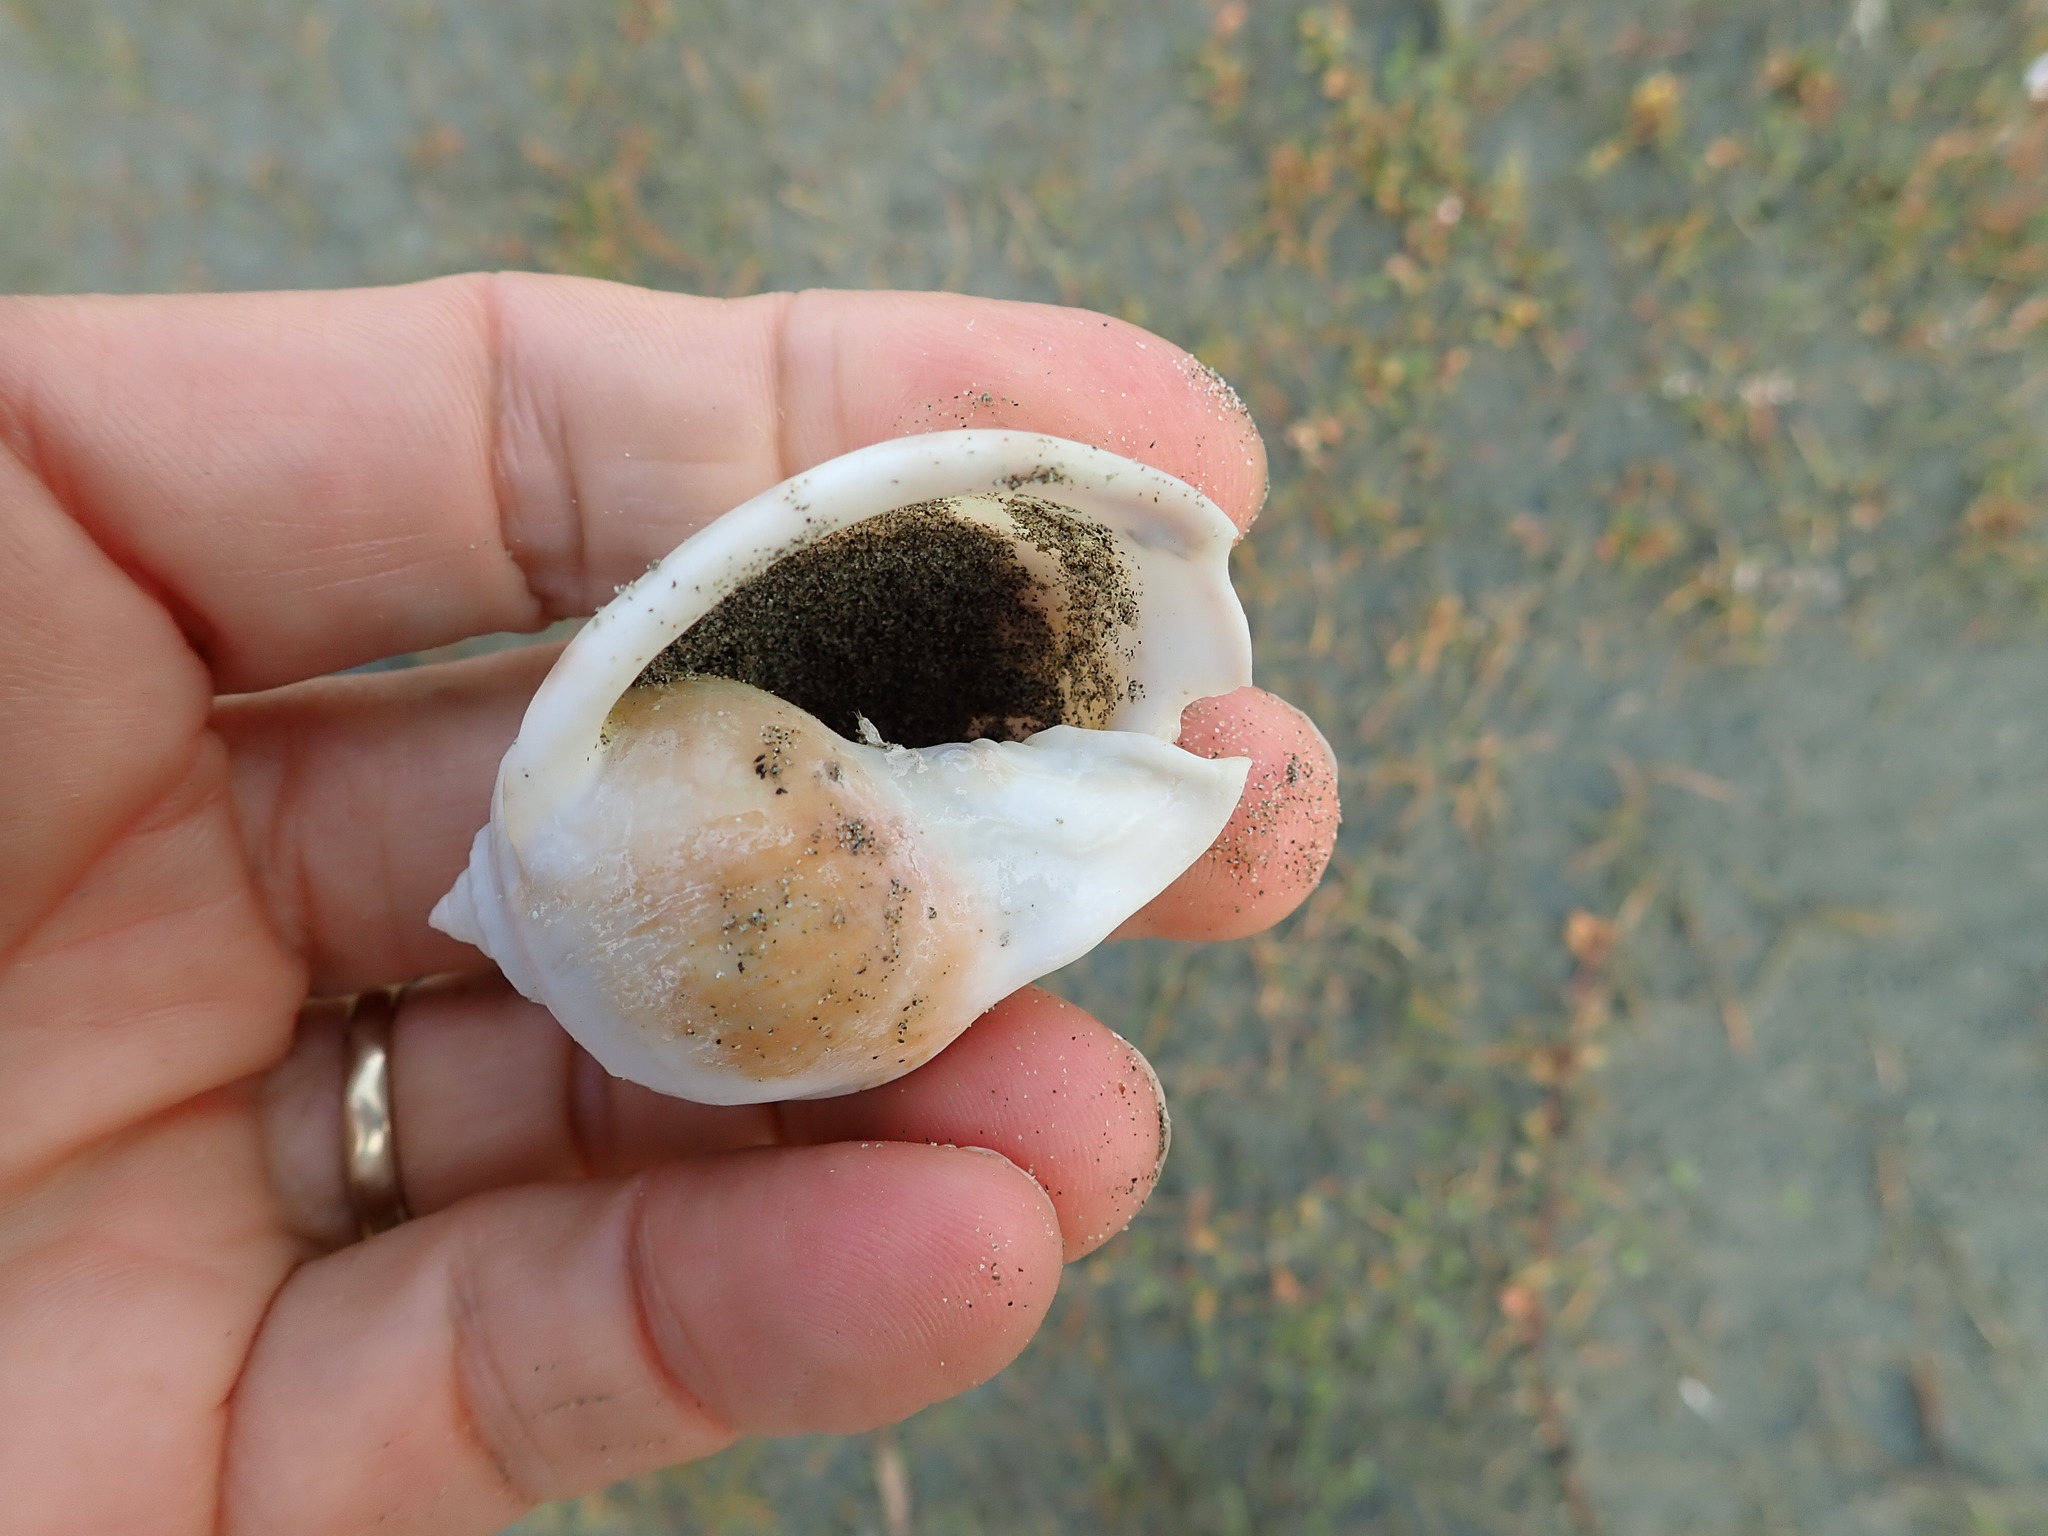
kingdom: Animalia
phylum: Mollusca
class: Gastropoda
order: Littorinimorpha
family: Cassidae
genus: Semicassis
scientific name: Semicassis pyrum
